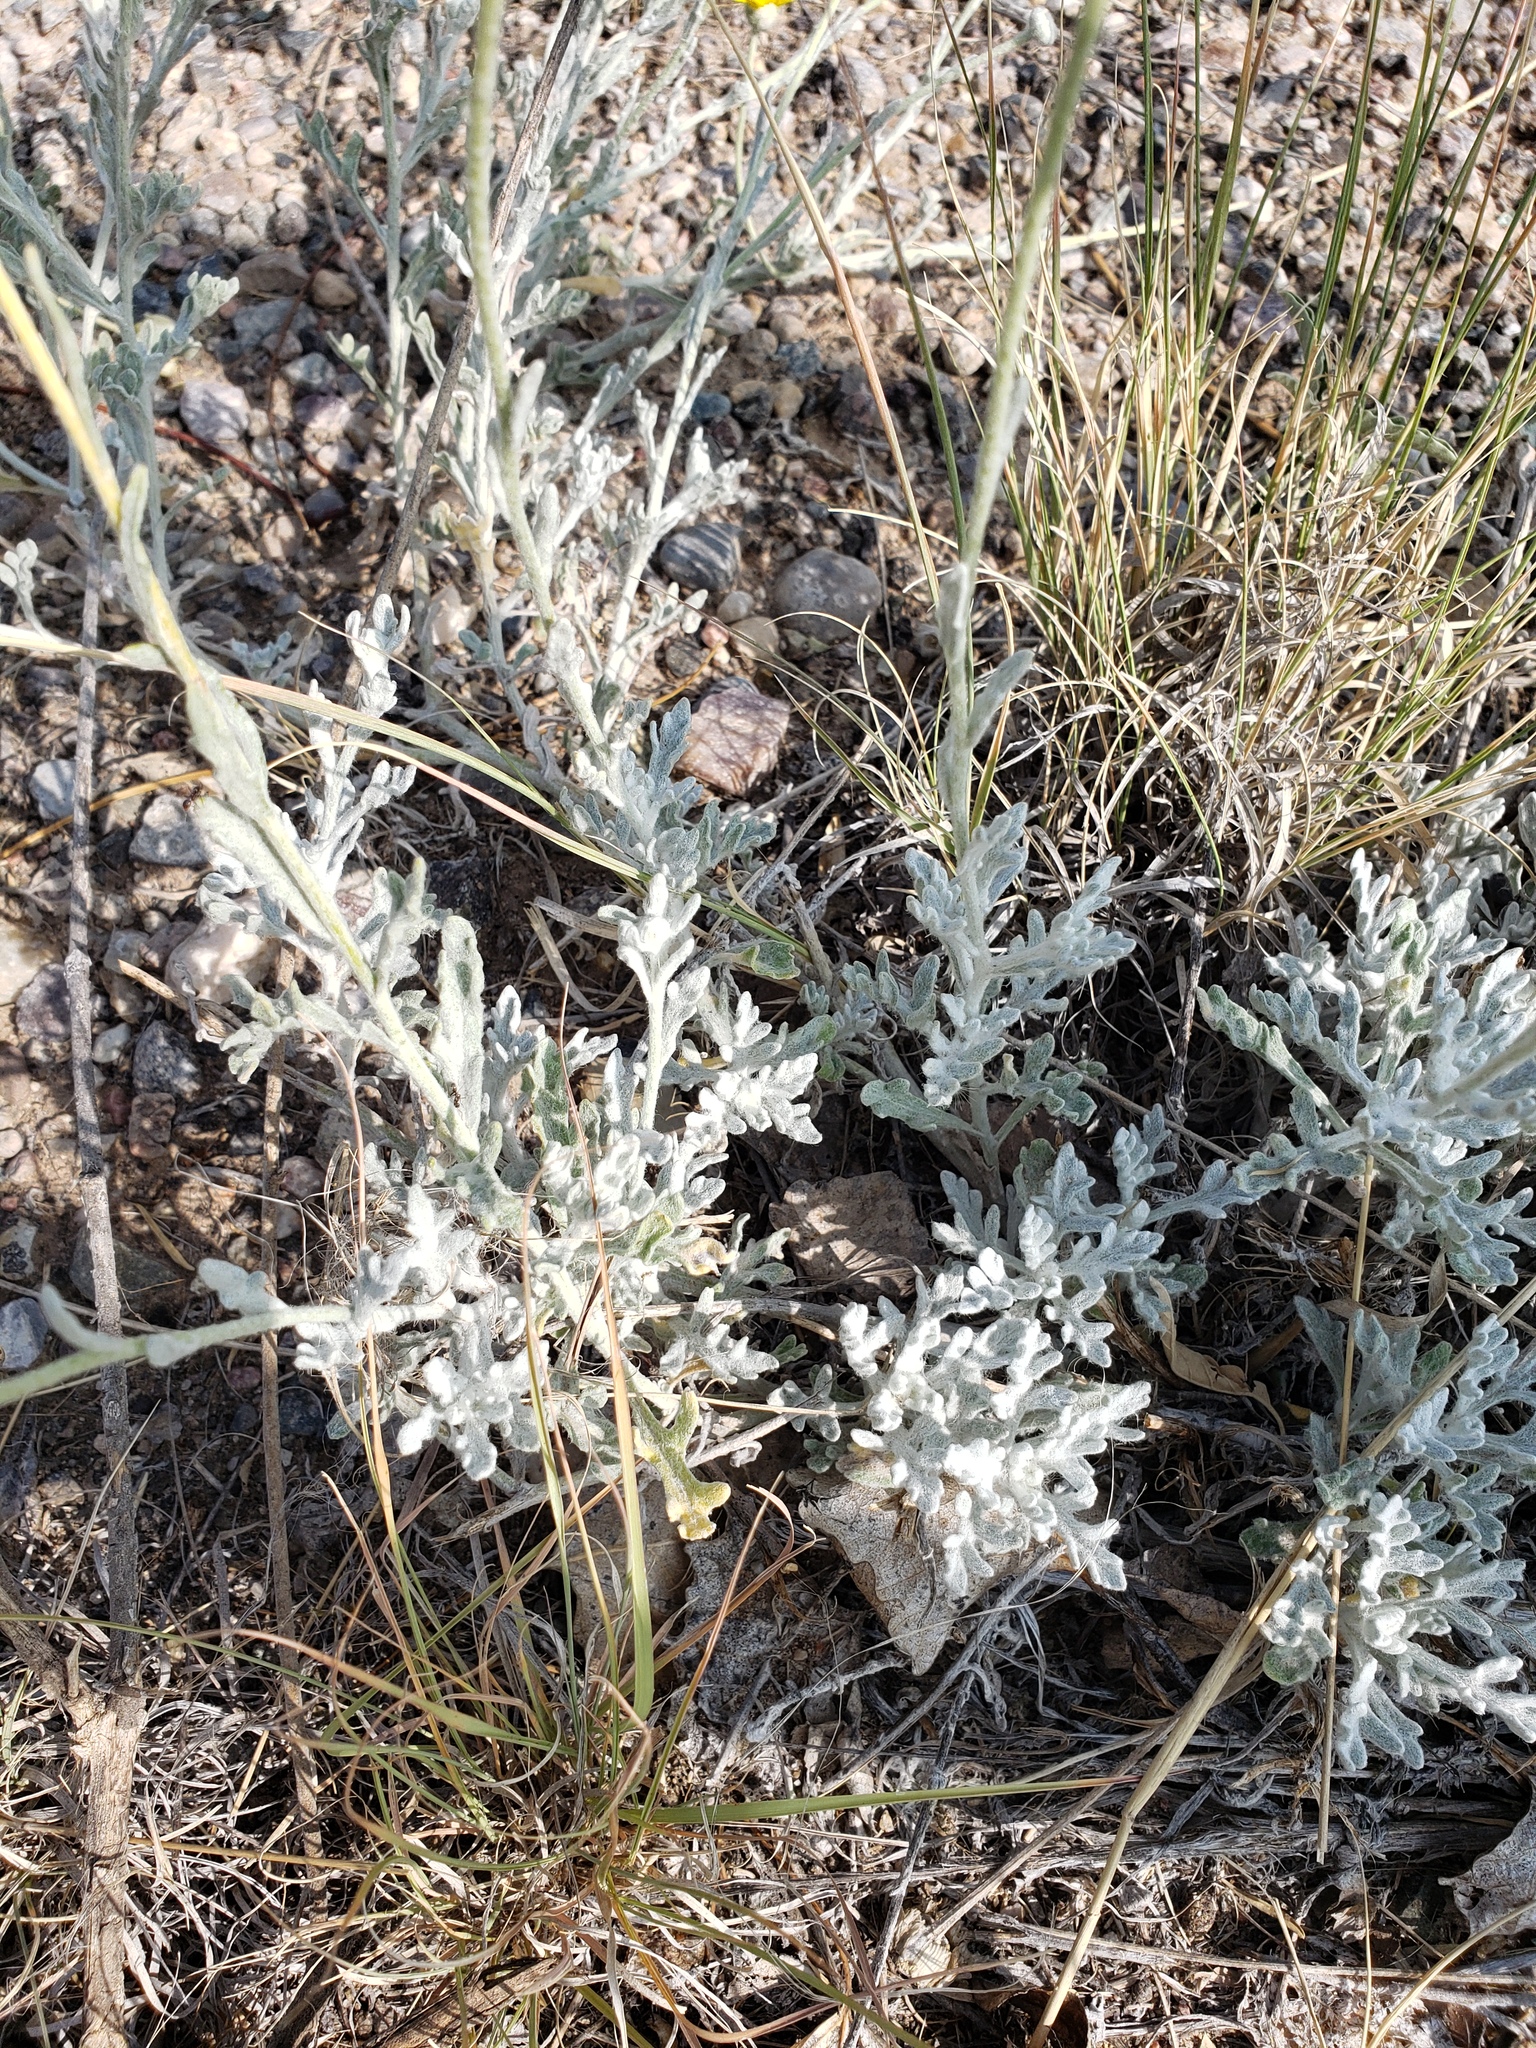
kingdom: Plantae
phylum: Tracheophyta
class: Magnoliopsida
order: Asterales
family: Asteraceae
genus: Baileya
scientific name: Baileya multiradiata
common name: Desert-marigold
